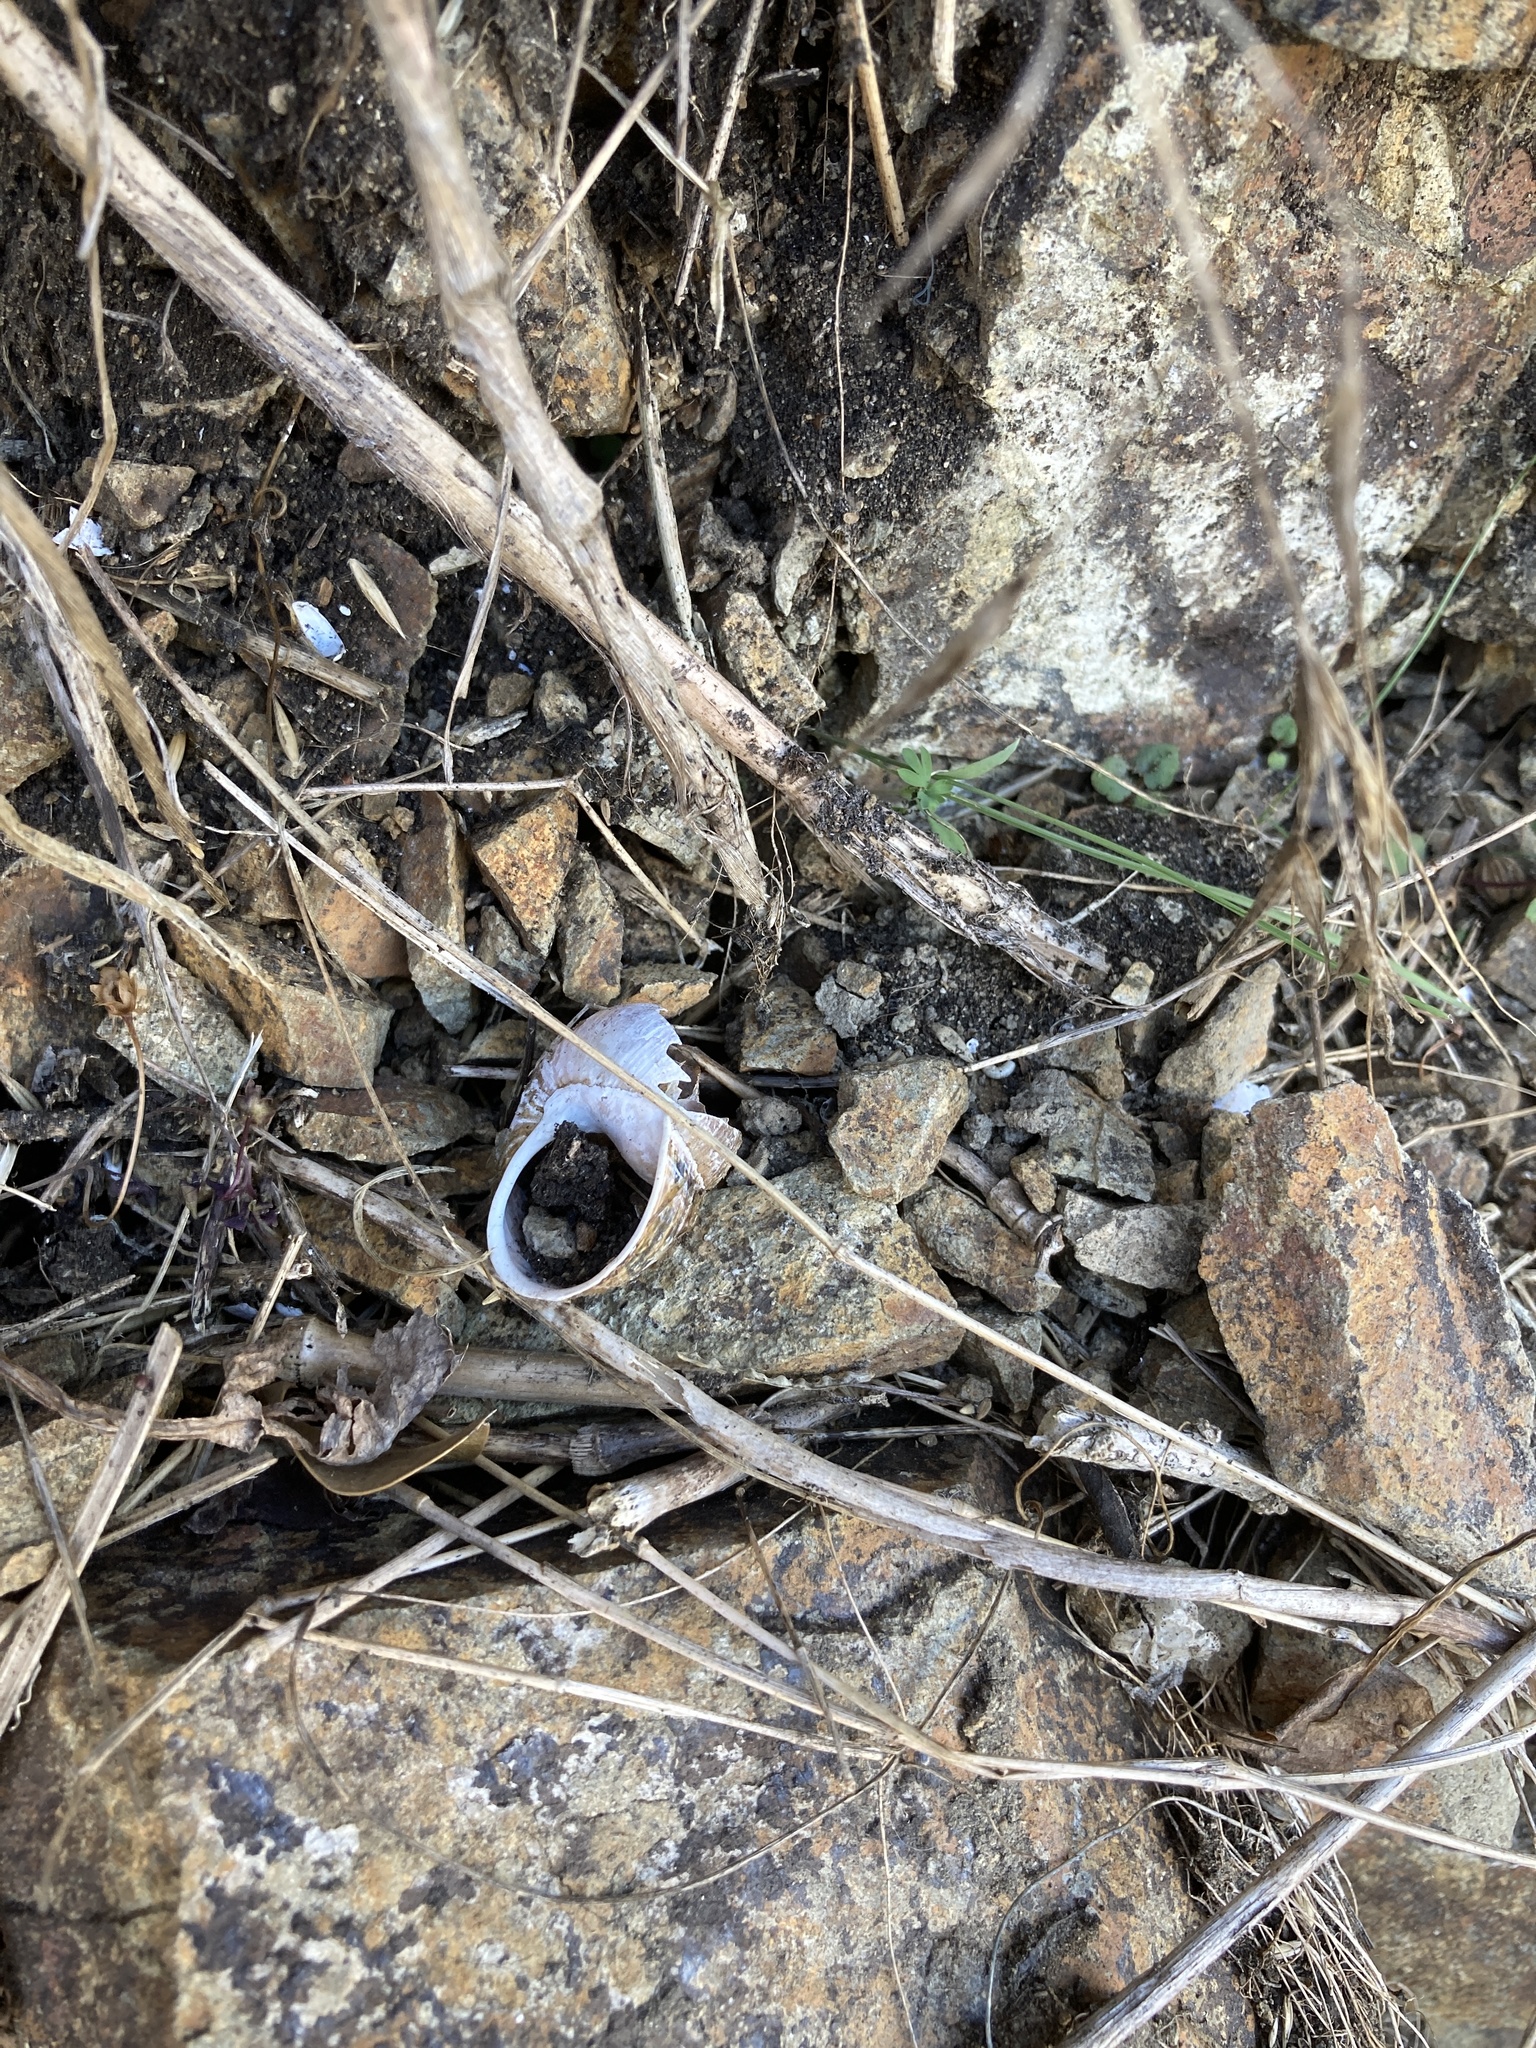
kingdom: Animalia
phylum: Mollusca
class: Gastropoda
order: Stylommatophora
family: Helicidae
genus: Cornu
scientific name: Cornu aspersum
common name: Brown garden snail
